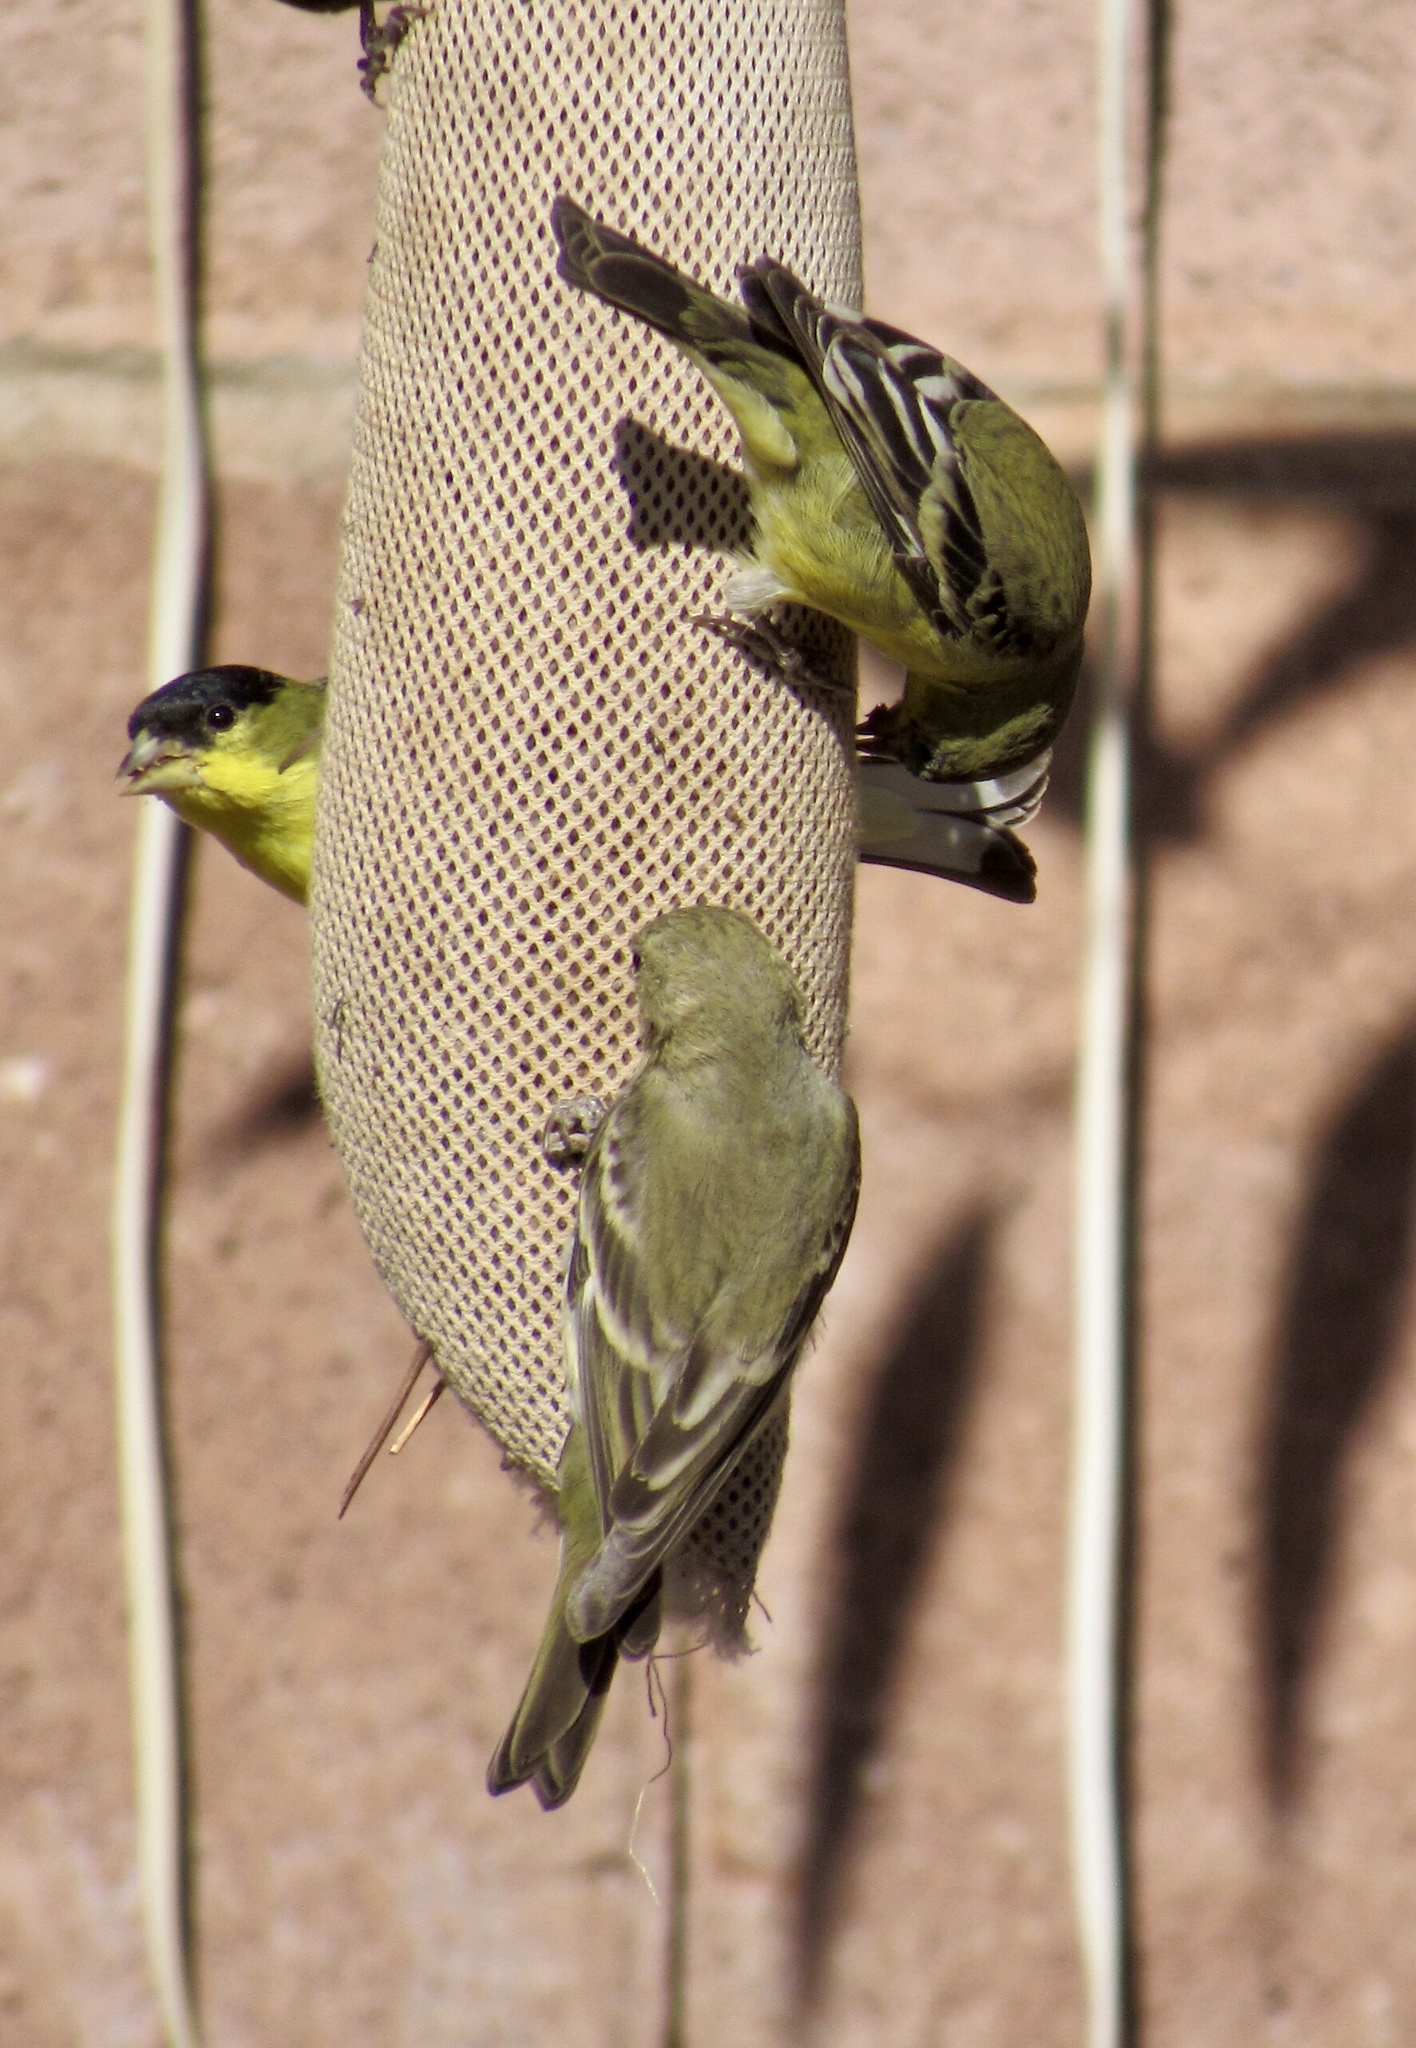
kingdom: Animalia
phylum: Chordata
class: Aves
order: Passeriformes
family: Fringillidae
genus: Spinus
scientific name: Spinus psaltria
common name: Lesser goldfinch
